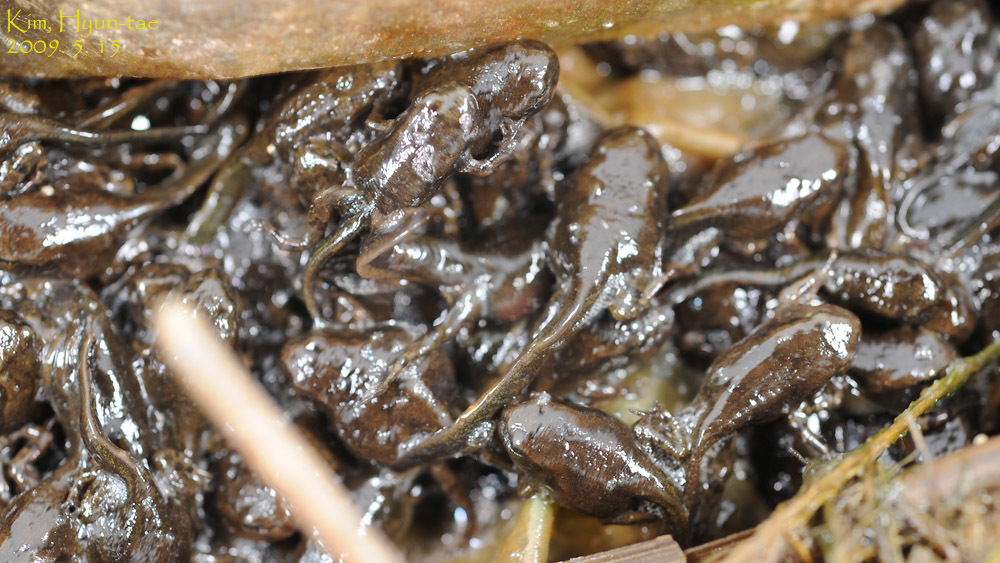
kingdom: Animalia
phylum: Chordata
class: Amphibia
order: Anura
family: Bufonidae
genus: Bufo
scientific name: Bufo gargarizans
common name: Asiatic toad
